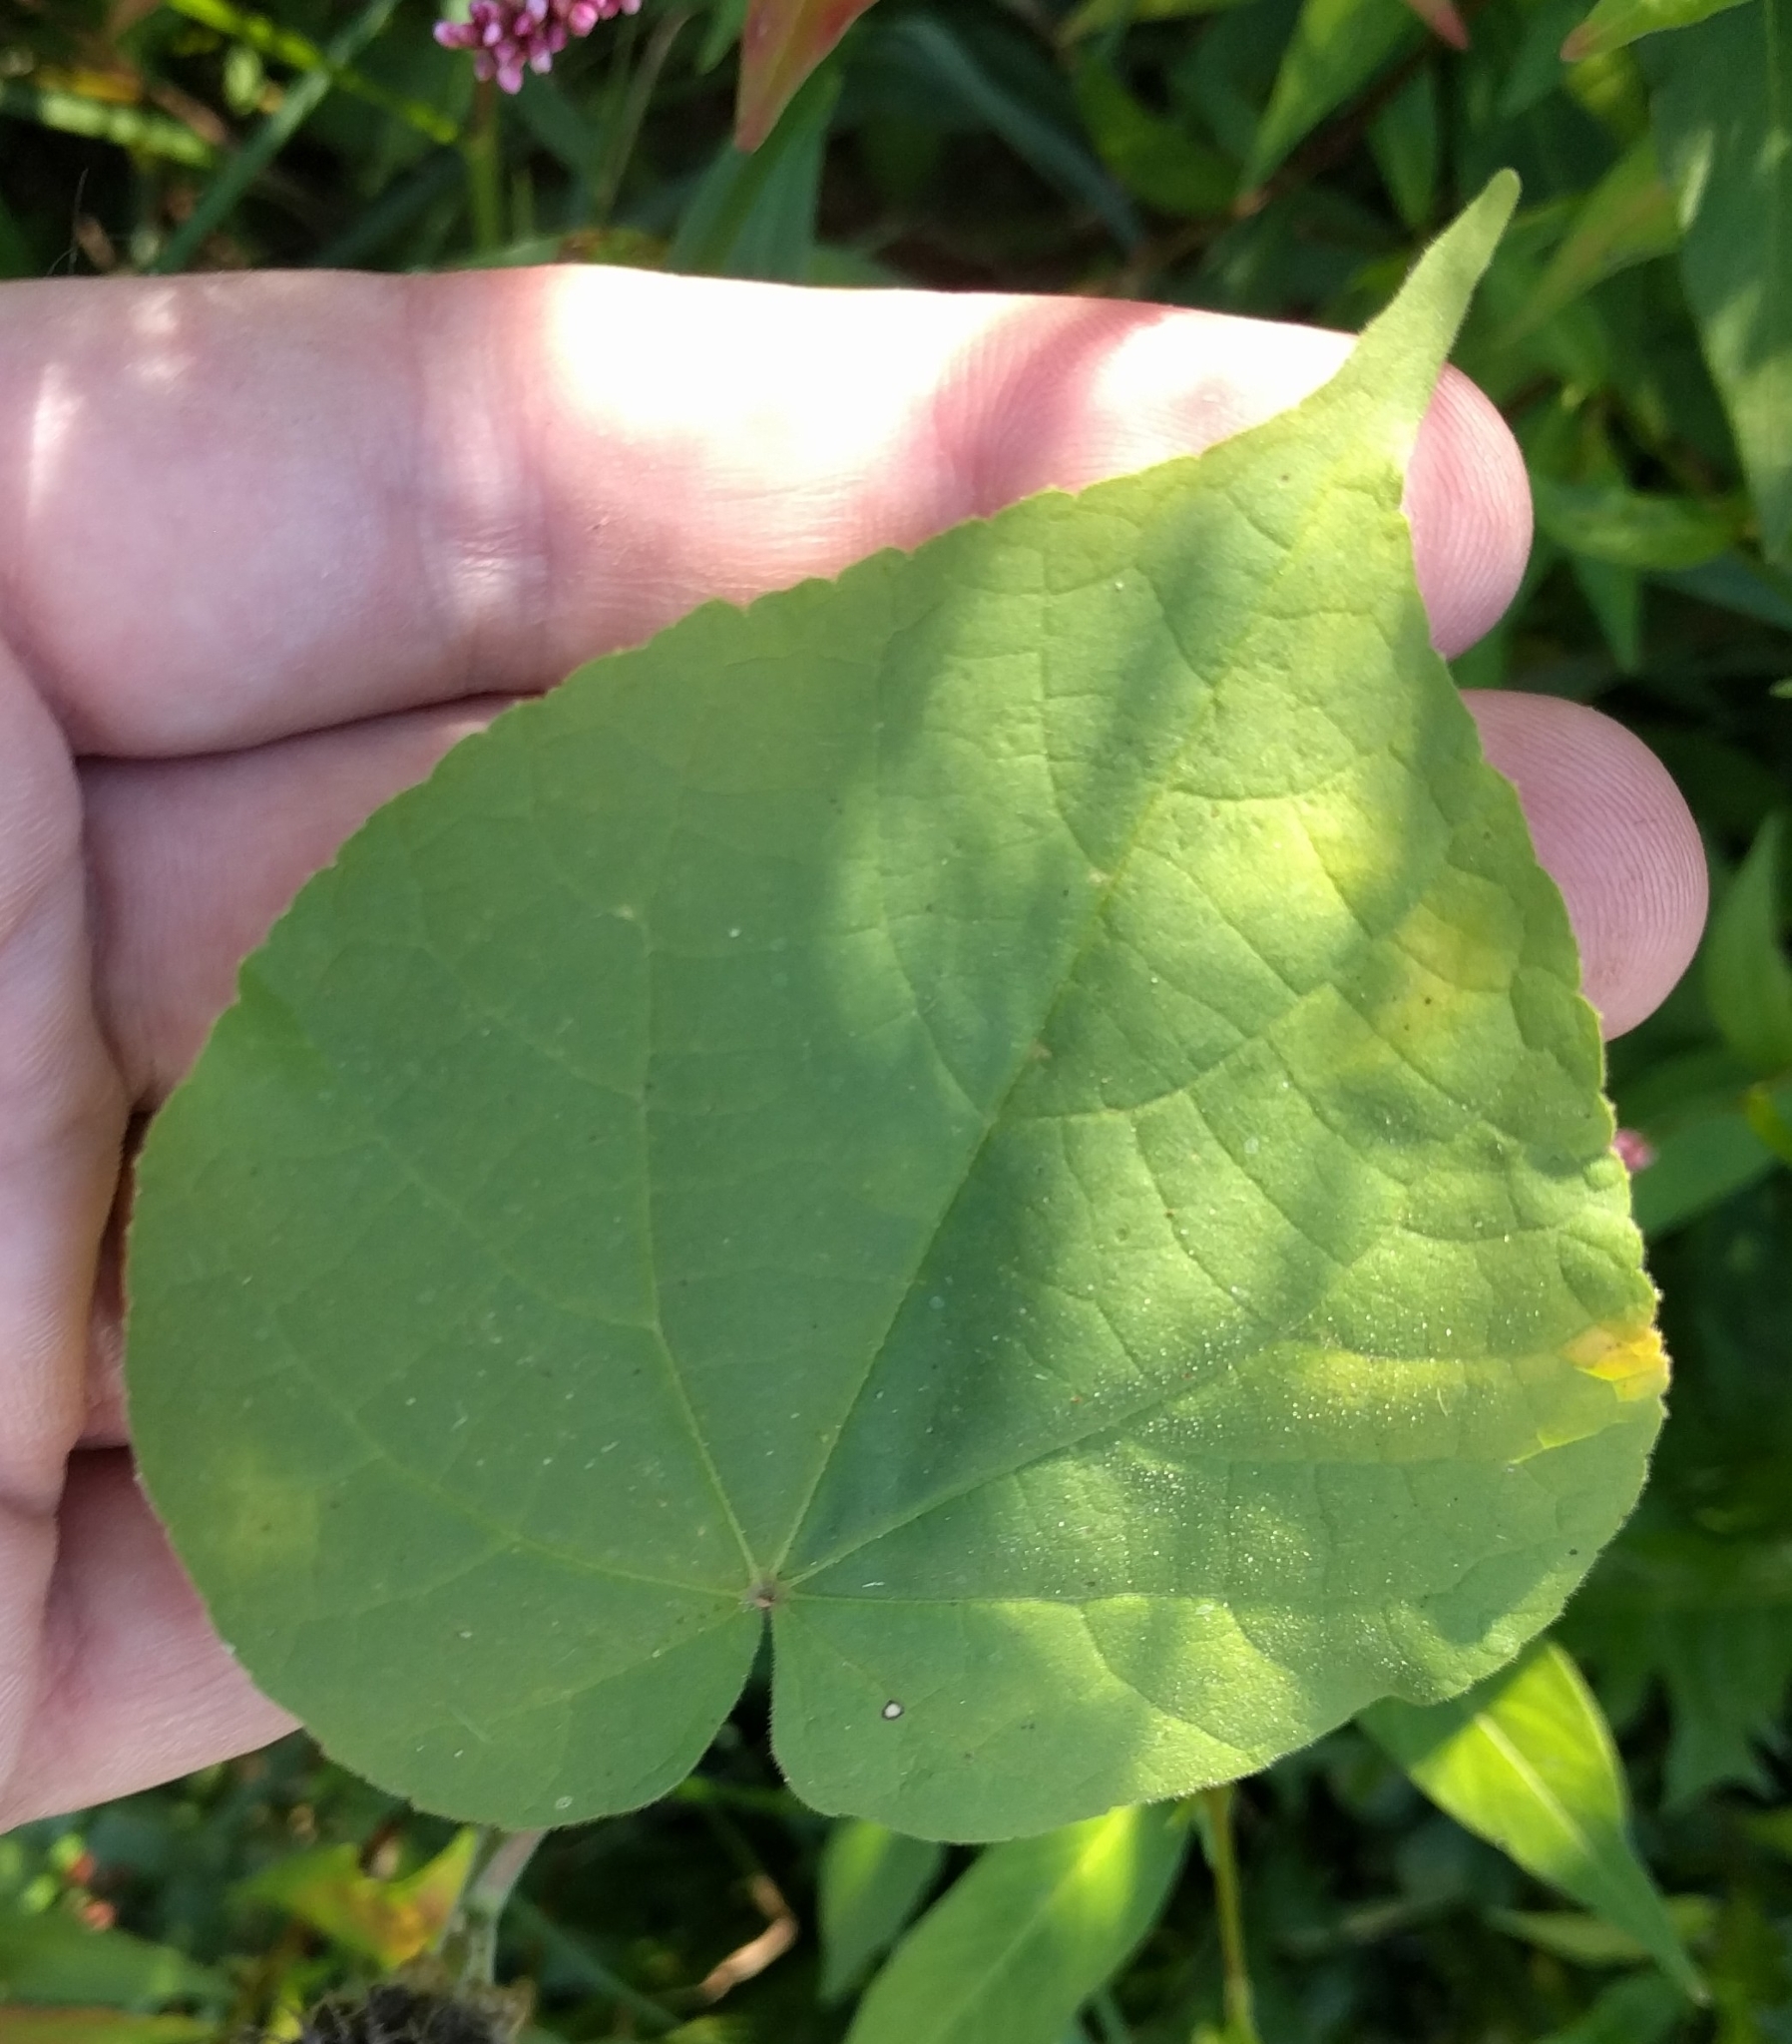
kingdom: Plantae
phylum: Tracheophyta
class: Magnoliopsida
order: Malvales
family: Malvaceae
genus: Abutilon
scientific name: Abutilon theophrasti
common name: Velvetleaf
